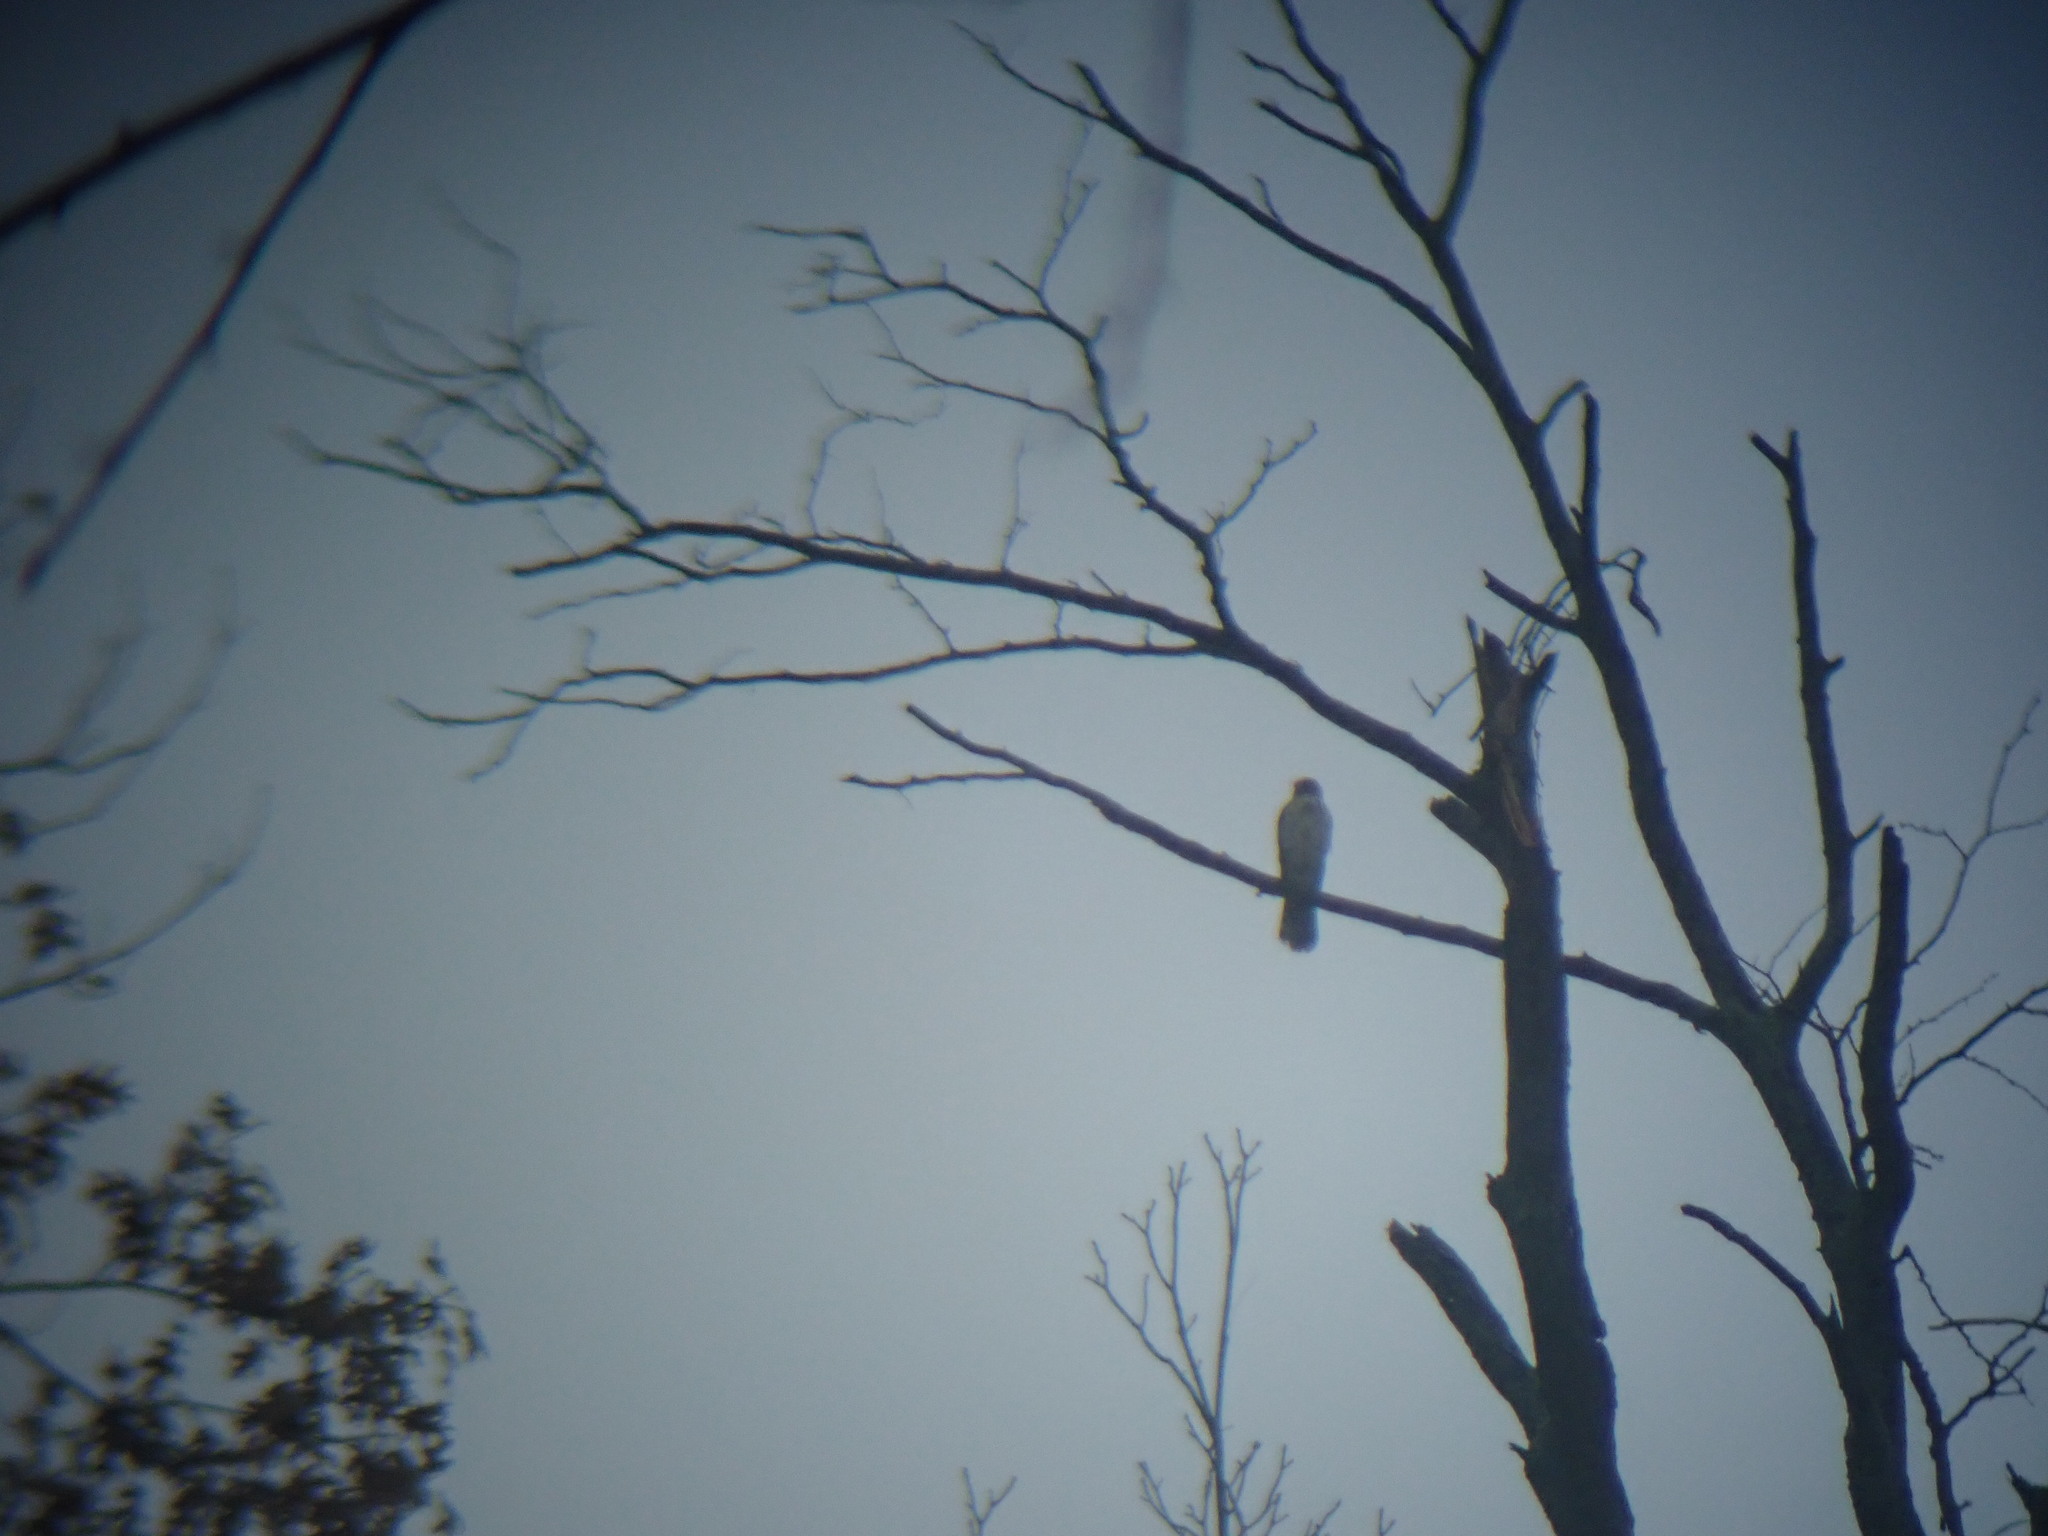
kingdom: Animalia
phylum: Chordata
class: Aves
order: Accipitriformes
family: Accipitridae
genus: Accipiter
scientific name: Accipiter cooperii
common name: Cooper's hawk
